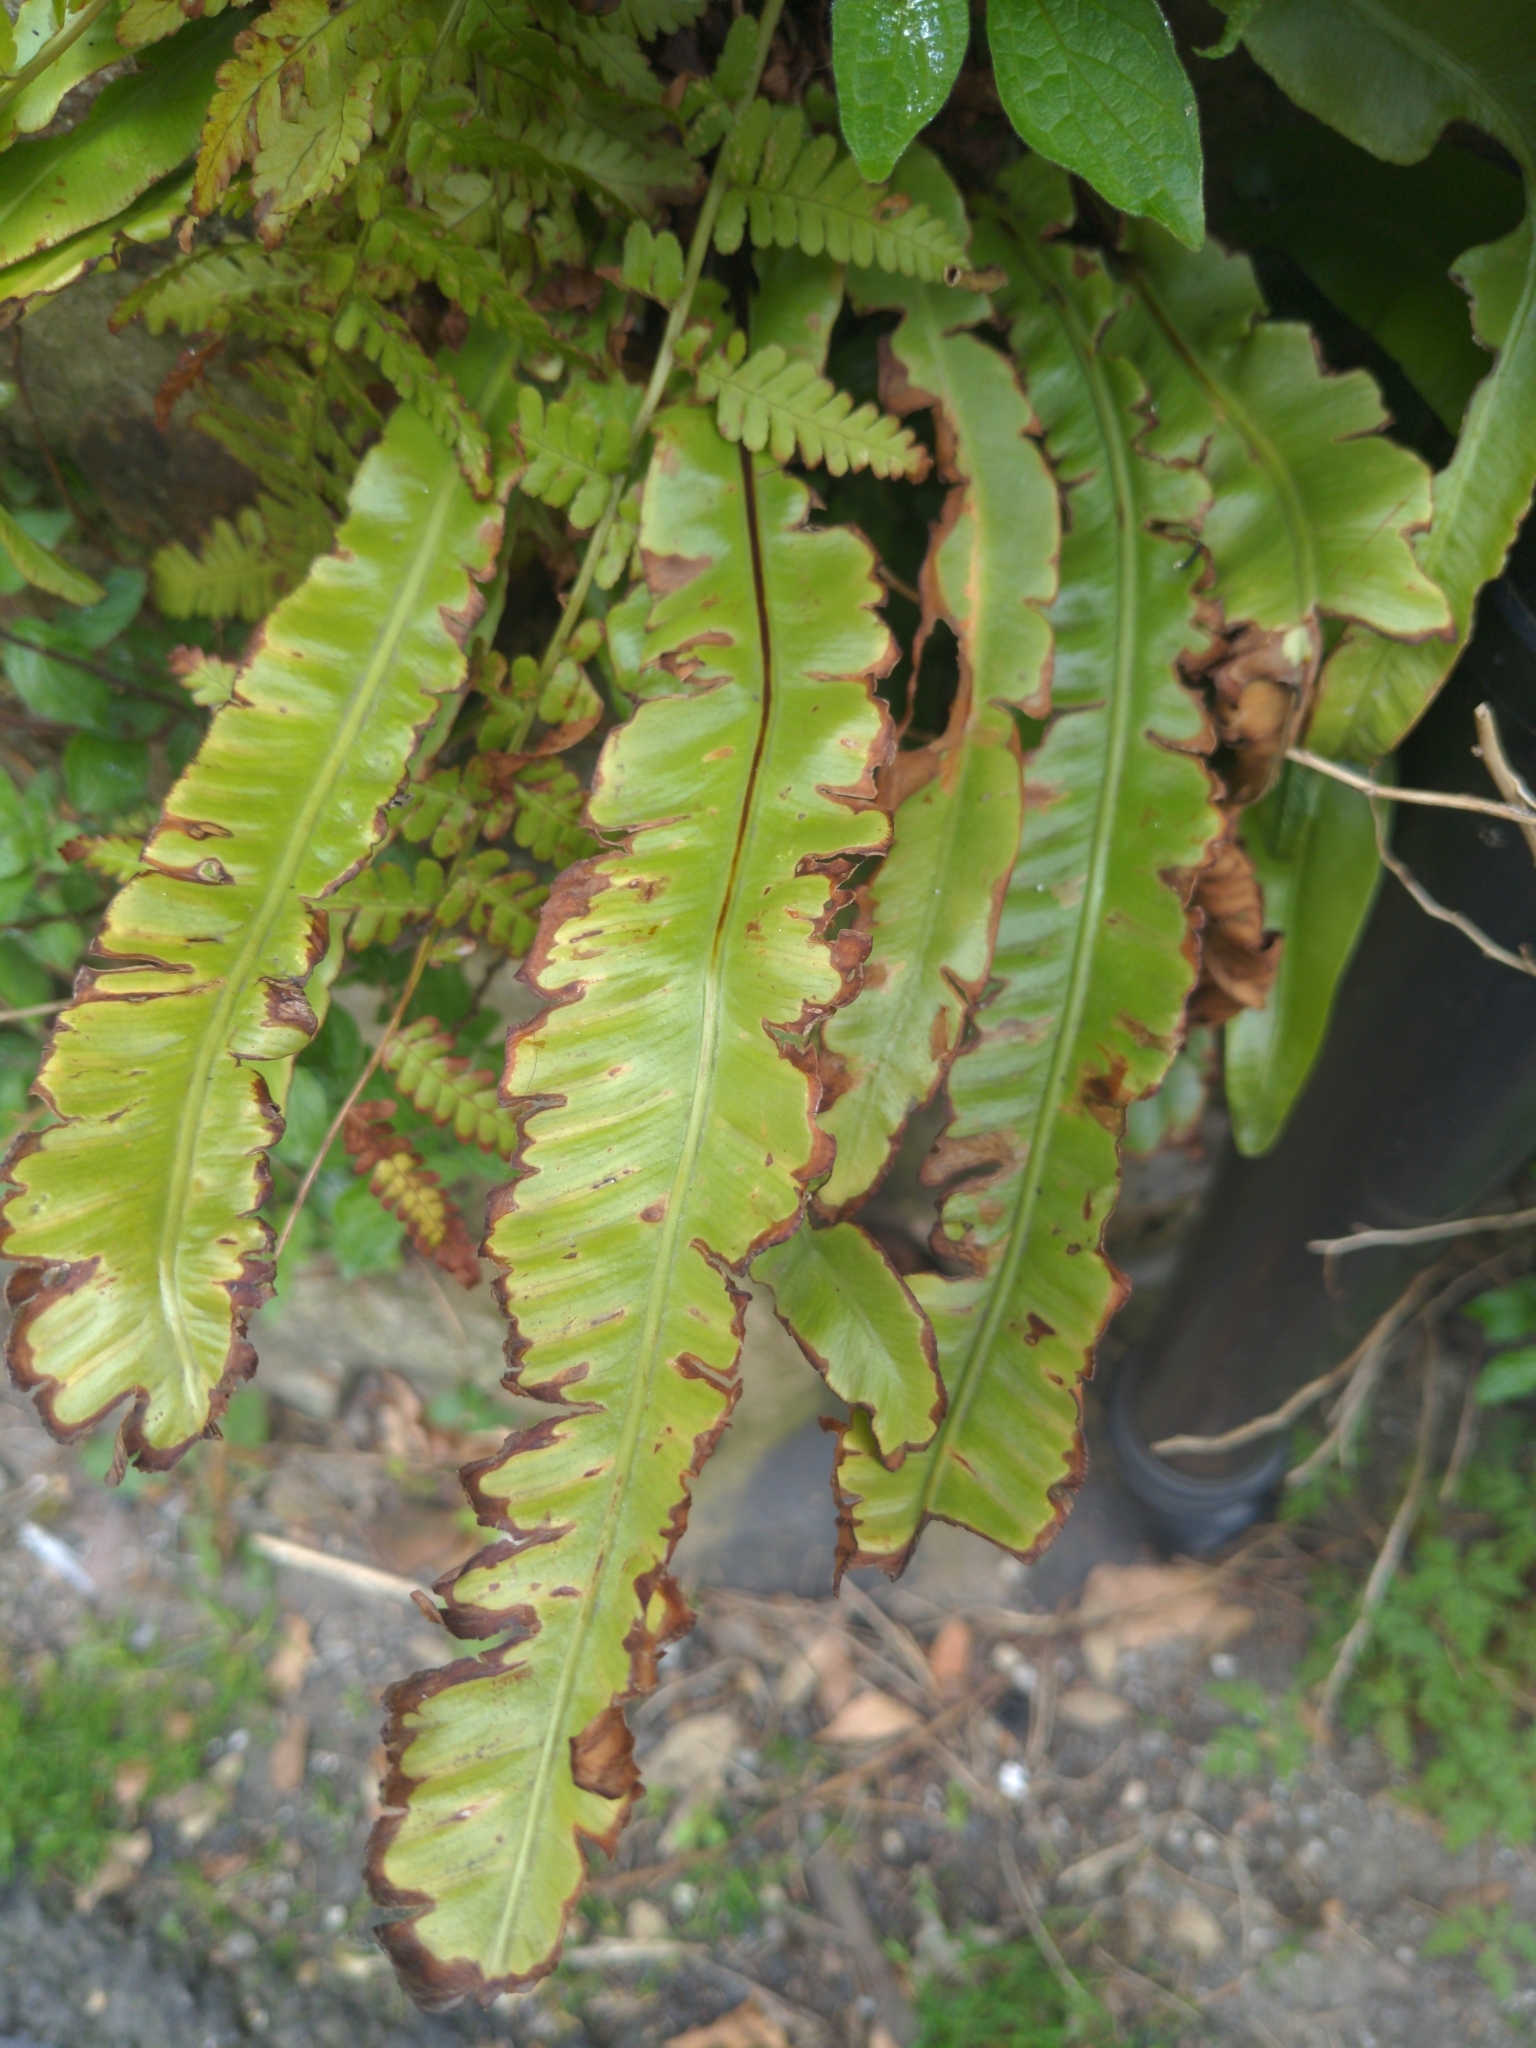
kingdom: Plantae
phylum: Tracheophyta
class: Polypodiopsida
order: Polypodiales
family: Aspleniaceae
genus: Asplenium
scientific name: Asplenium scolopendrium
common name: Hart's-tongue fern
